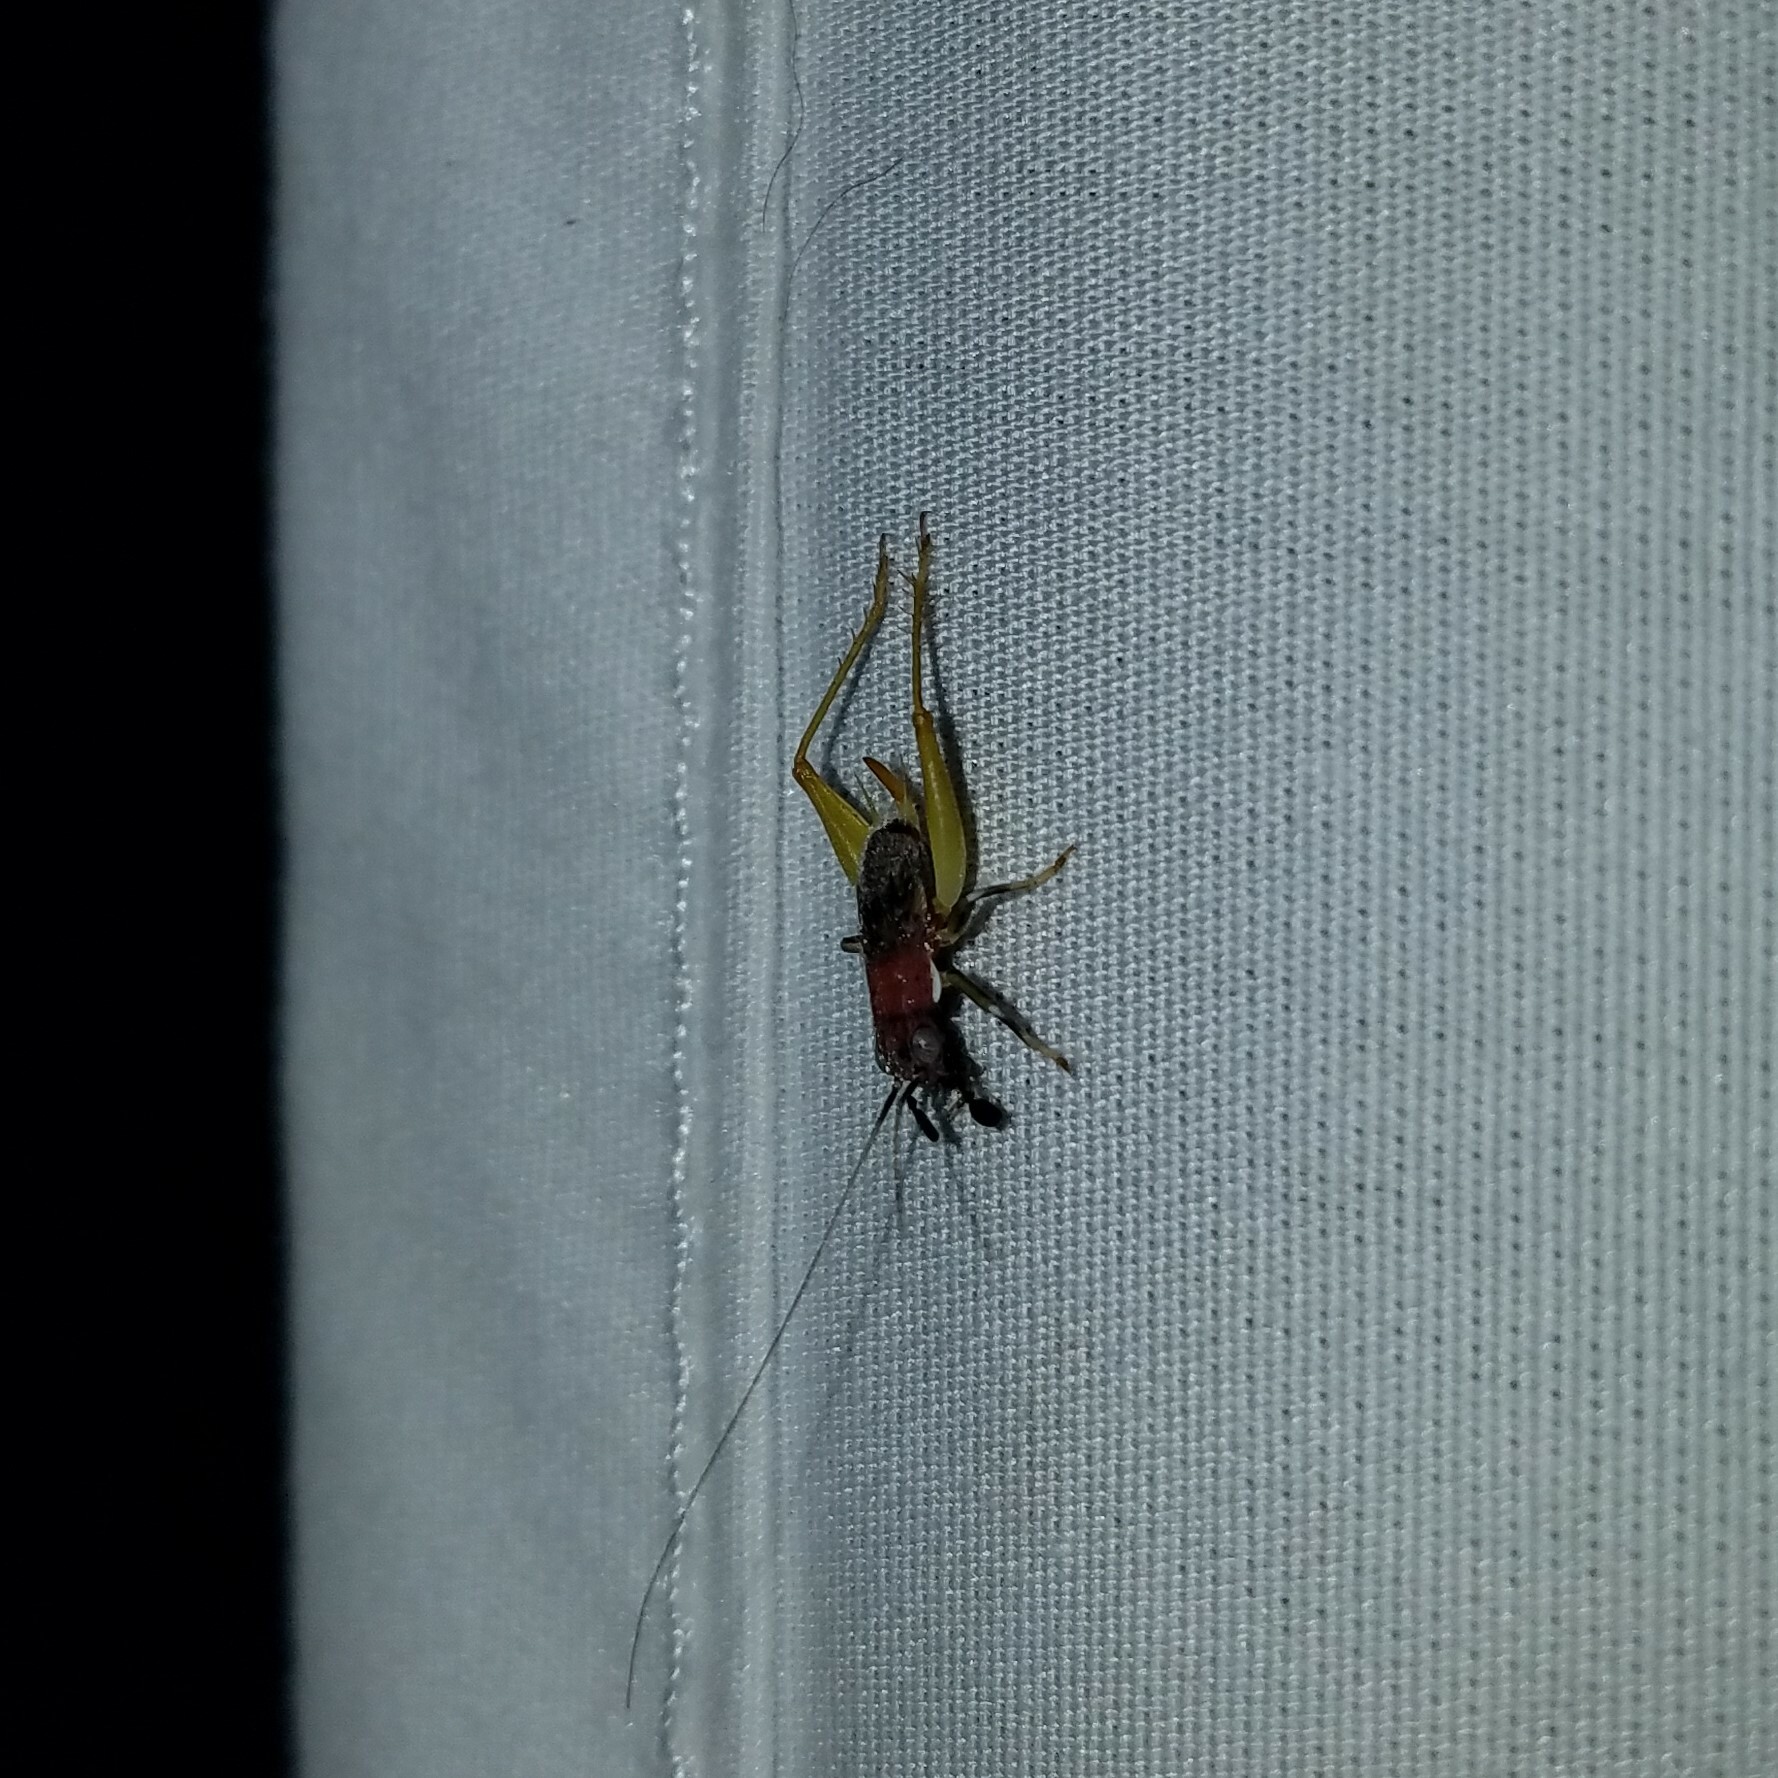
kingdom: Animalia
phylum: Arthropoda
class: Insecta
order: Orthoptera
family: Trigonidiidae
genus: Phyllopalpus
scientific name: Phyllopalpus pulchellus
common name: Handsome trig
